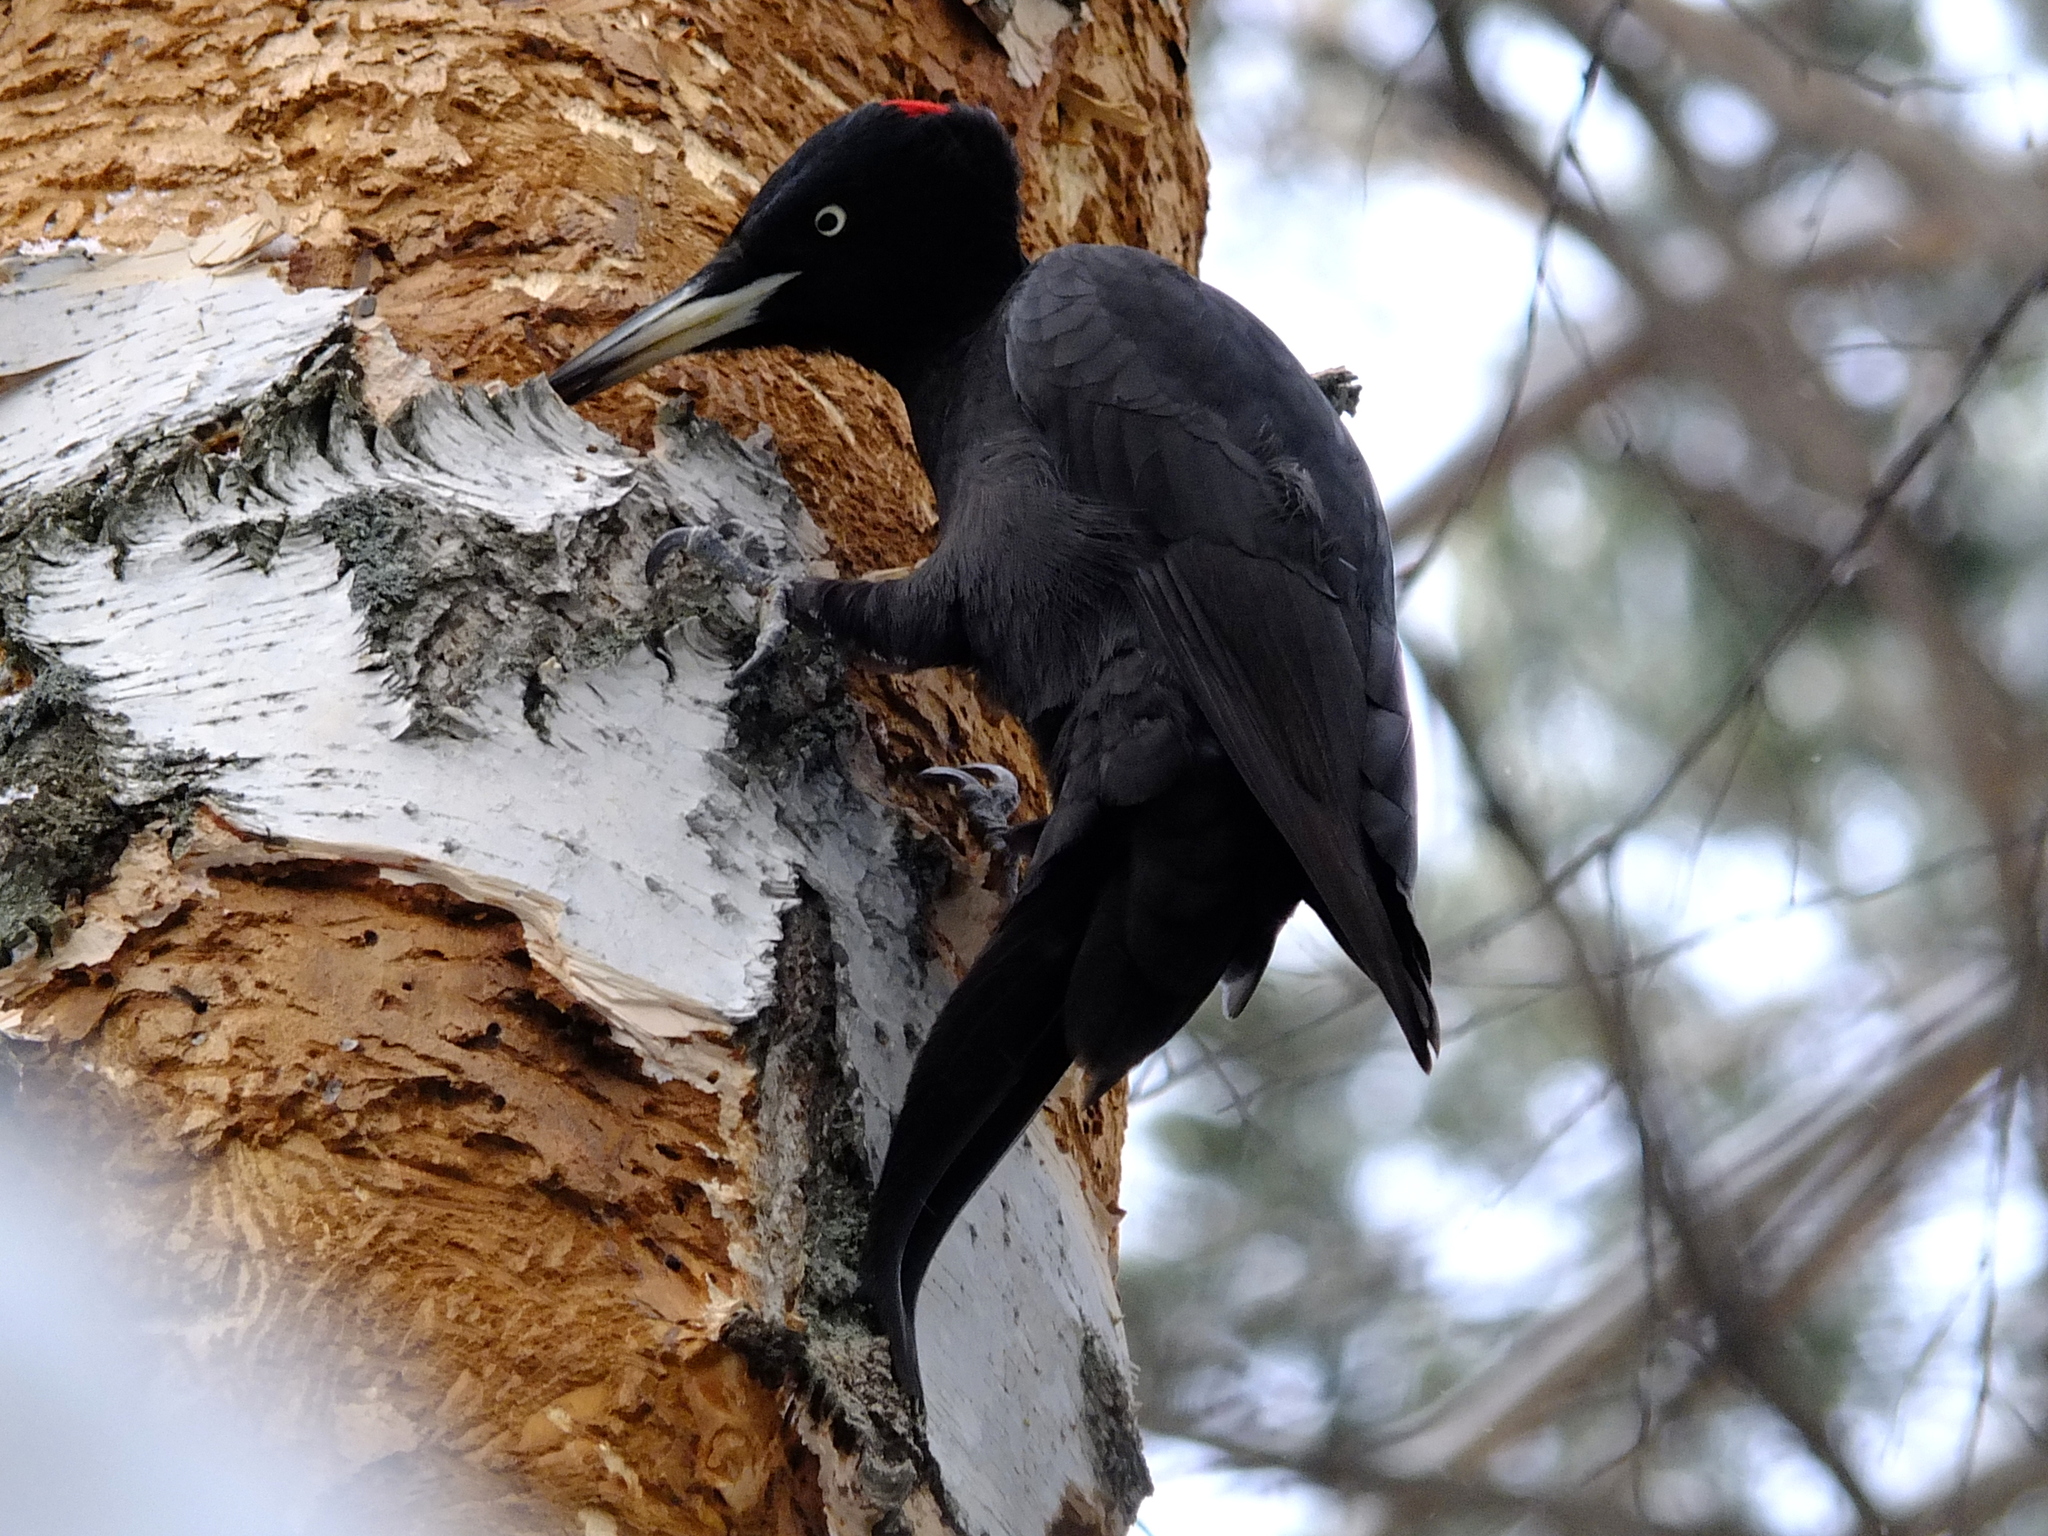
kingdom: Animalia
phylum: Chordata
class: Aves
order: Piciformes
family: Picidae
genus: Dryocopus
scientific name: Dryocopus martius
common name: Black woodpecker
